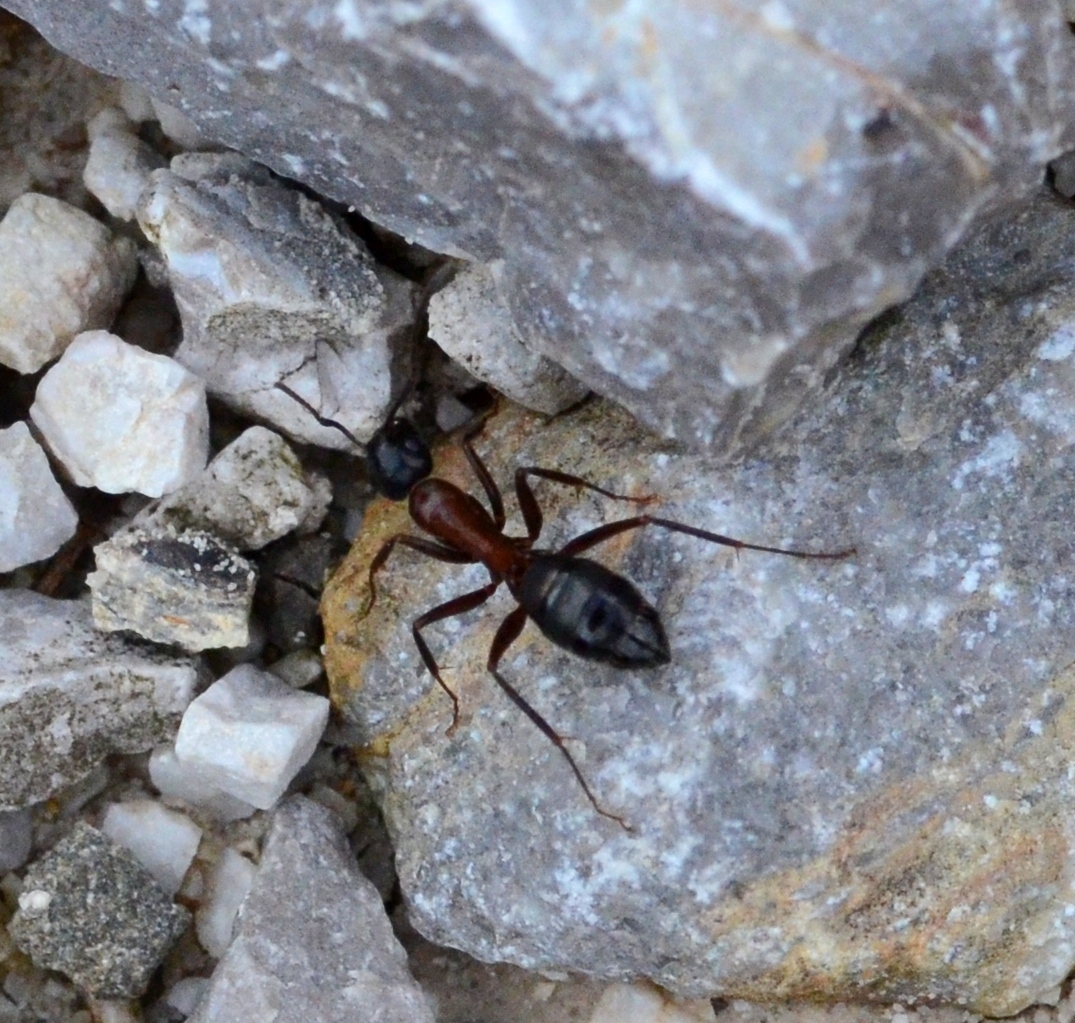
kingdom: Animalia
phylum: Arthropoda
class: Insecta
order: Hymenoptera
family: Formicidae
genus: Camponotus
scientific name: Camponotus ligniperdus
